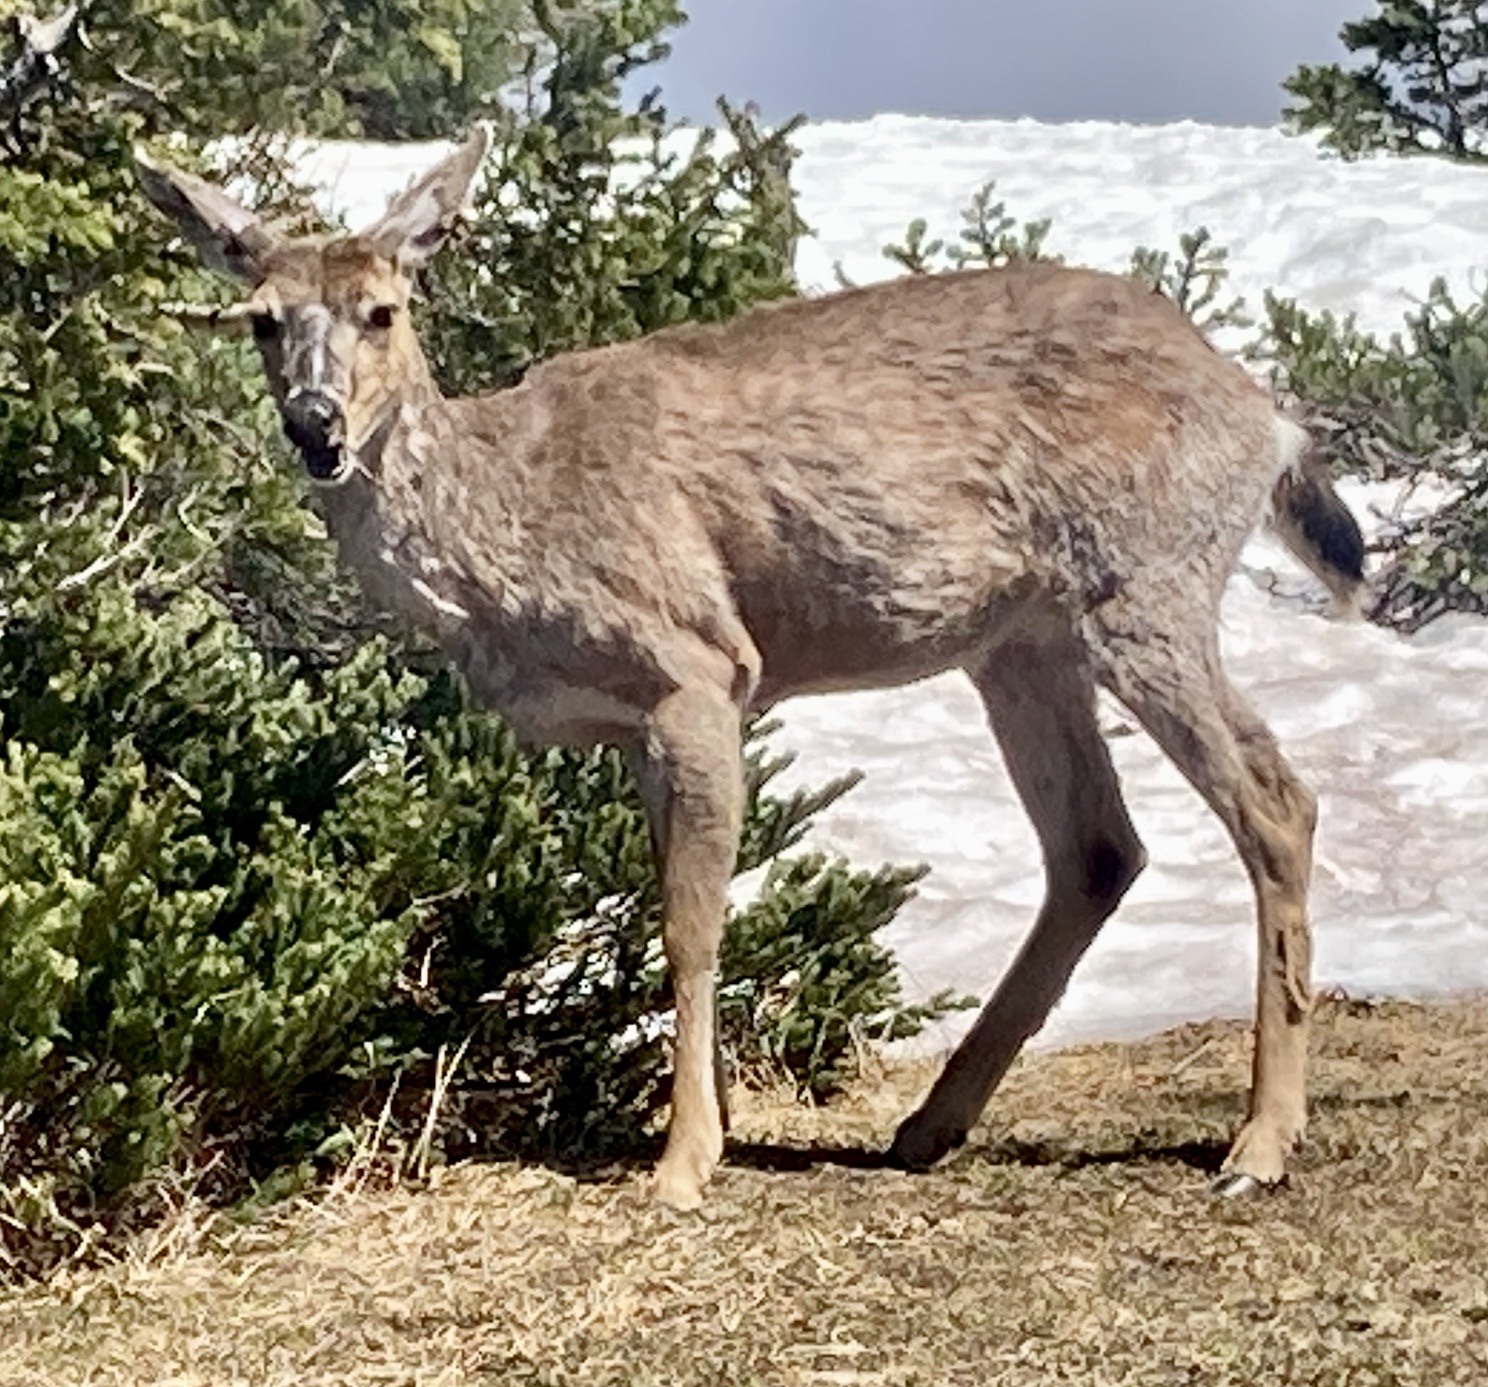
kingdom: Animalia
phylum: Chordata
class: Mammalia
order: Artiodactyla
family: Cervidae
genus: Odocoileus
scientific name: Odocoileus hemionus
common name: Mule deer
